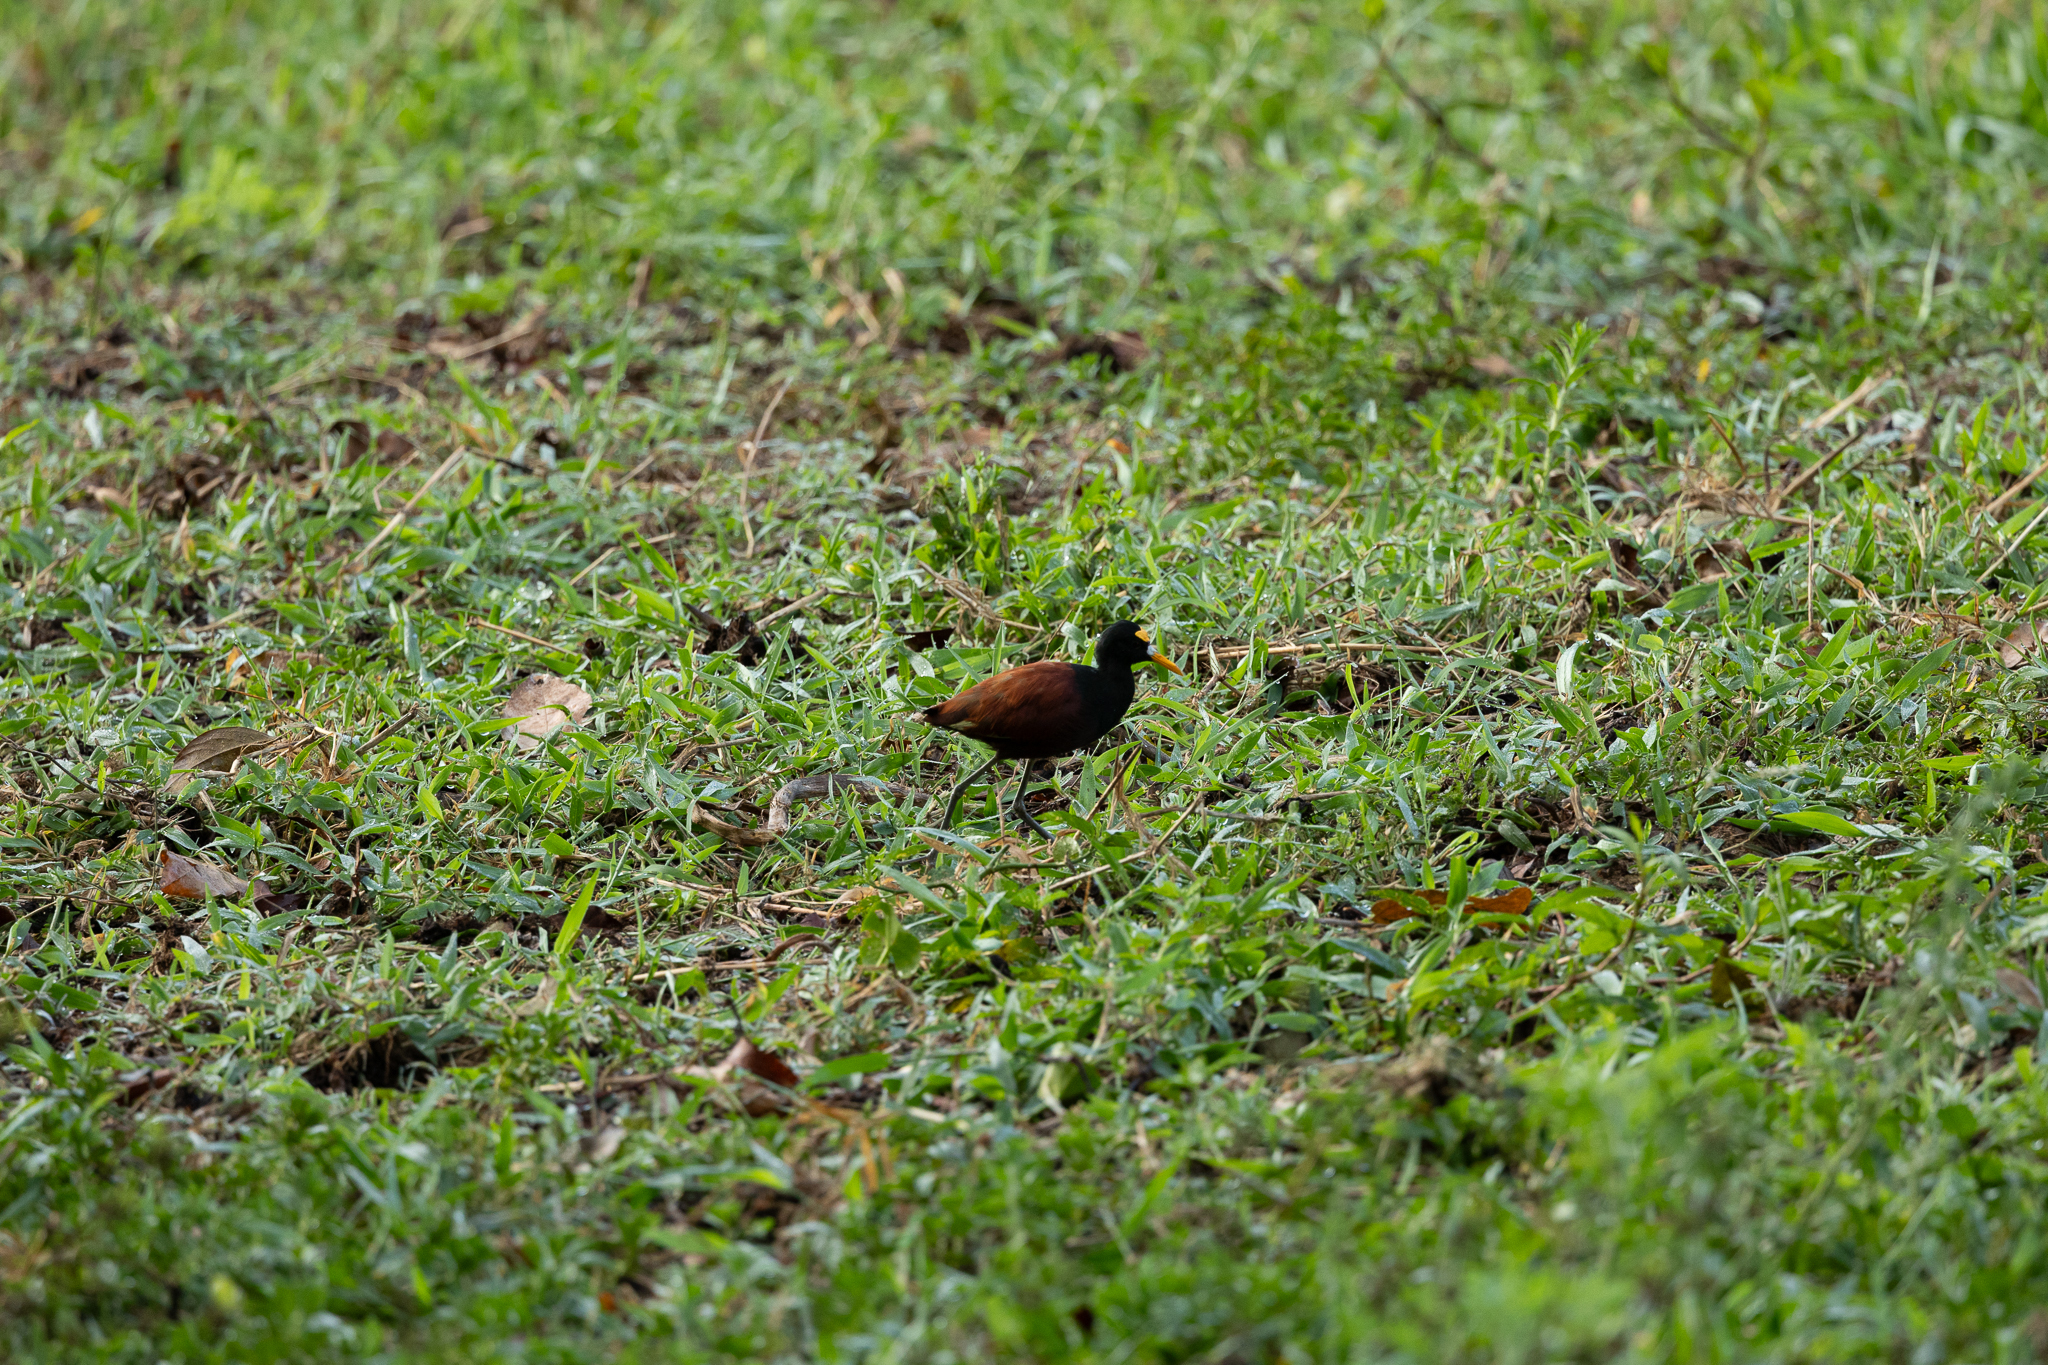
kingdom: Animalia
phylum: Chordata
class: Aves
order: Charadriiformes
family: Jacanidae
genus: Jacana
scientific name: Jacana spinosa
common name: Northern jacana
